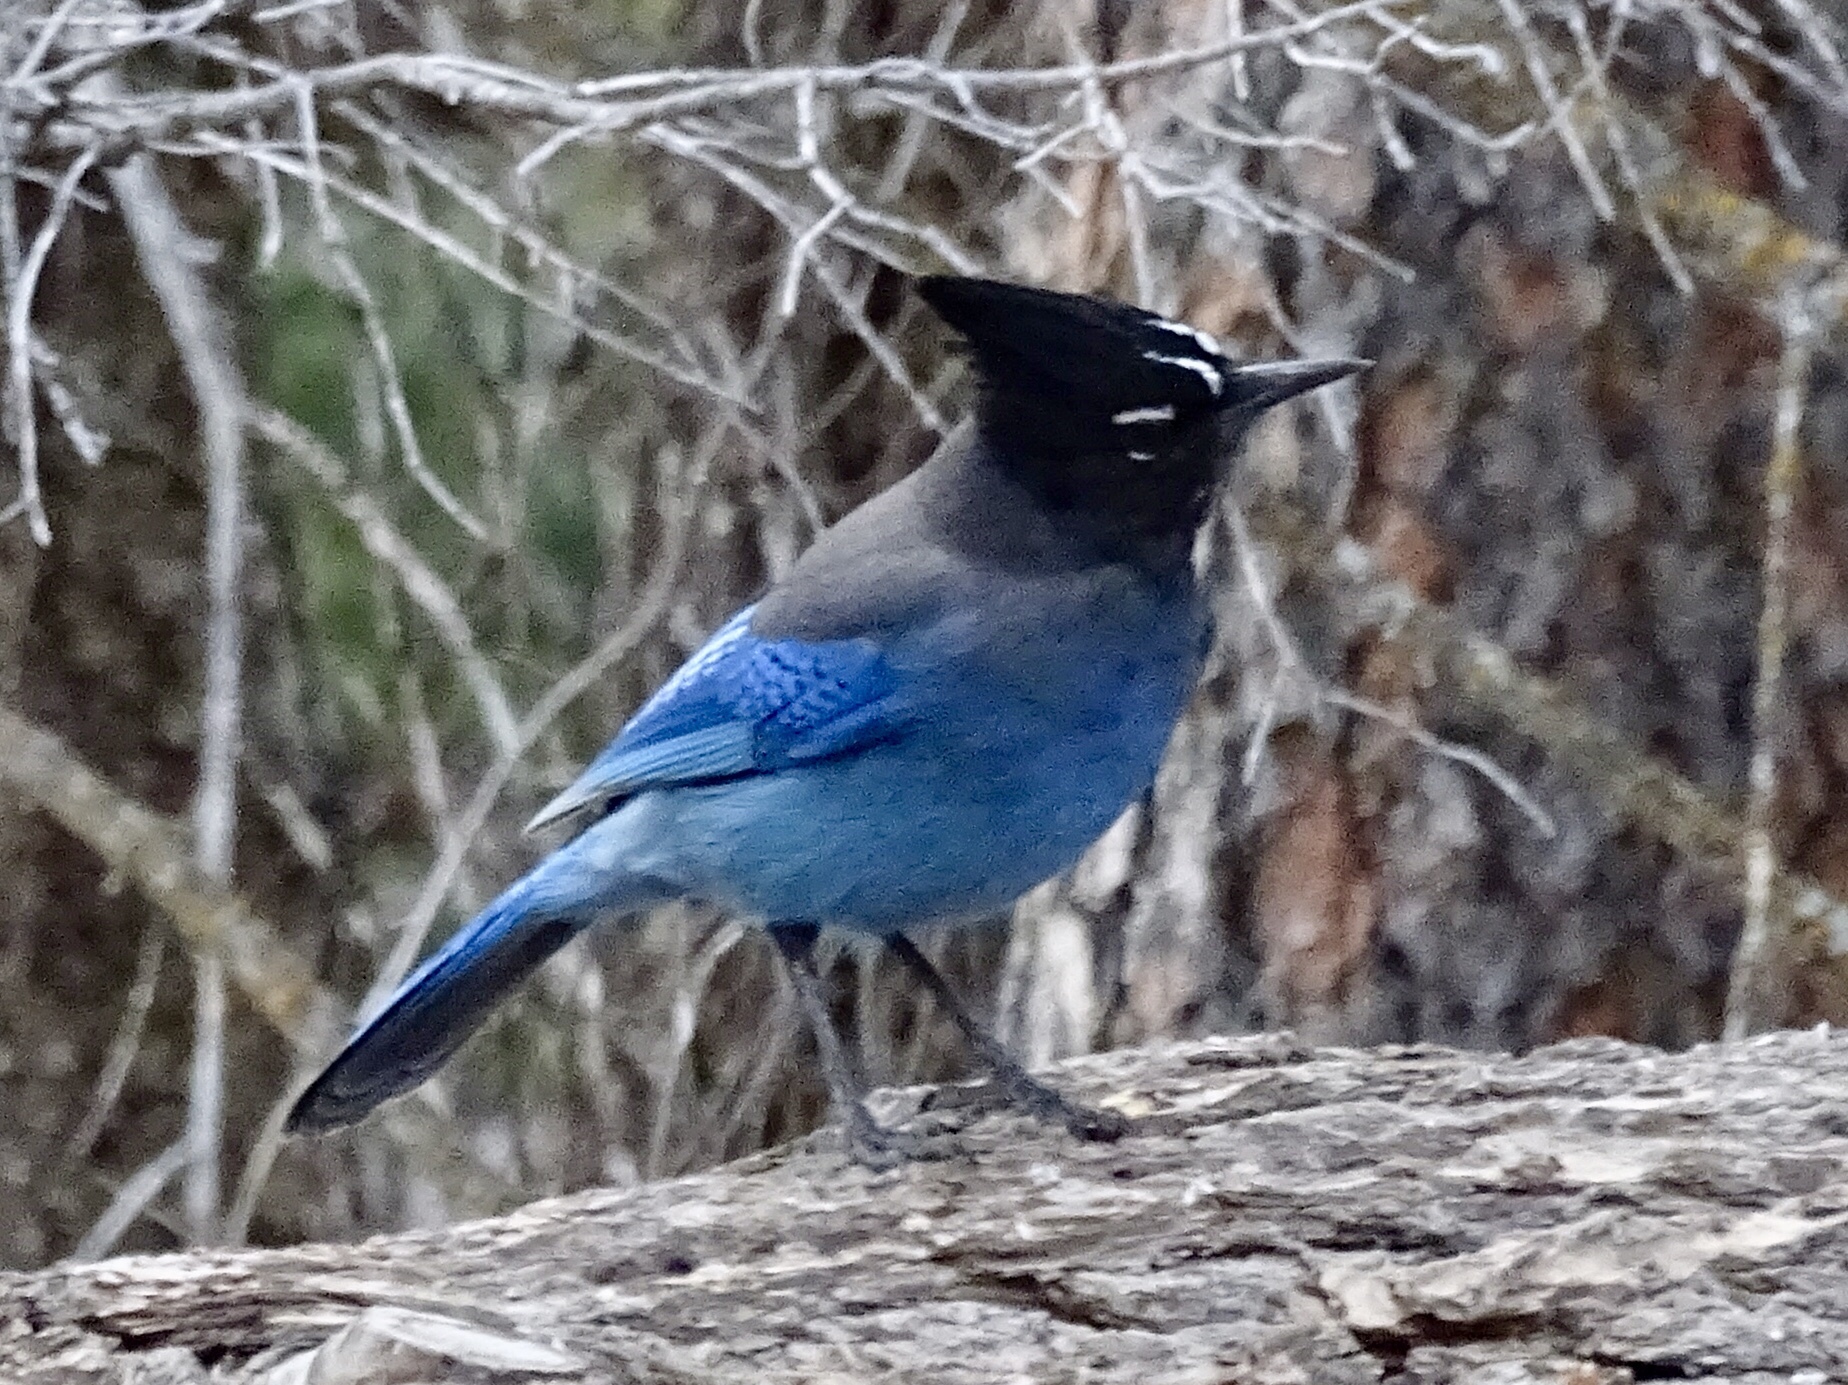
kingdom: Animalia
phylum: Chordata
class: Aves
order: Passeriformes
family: Corvidae
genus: Cyanocitta
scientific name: Cyanocitta stelleri
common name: Steller's jay
